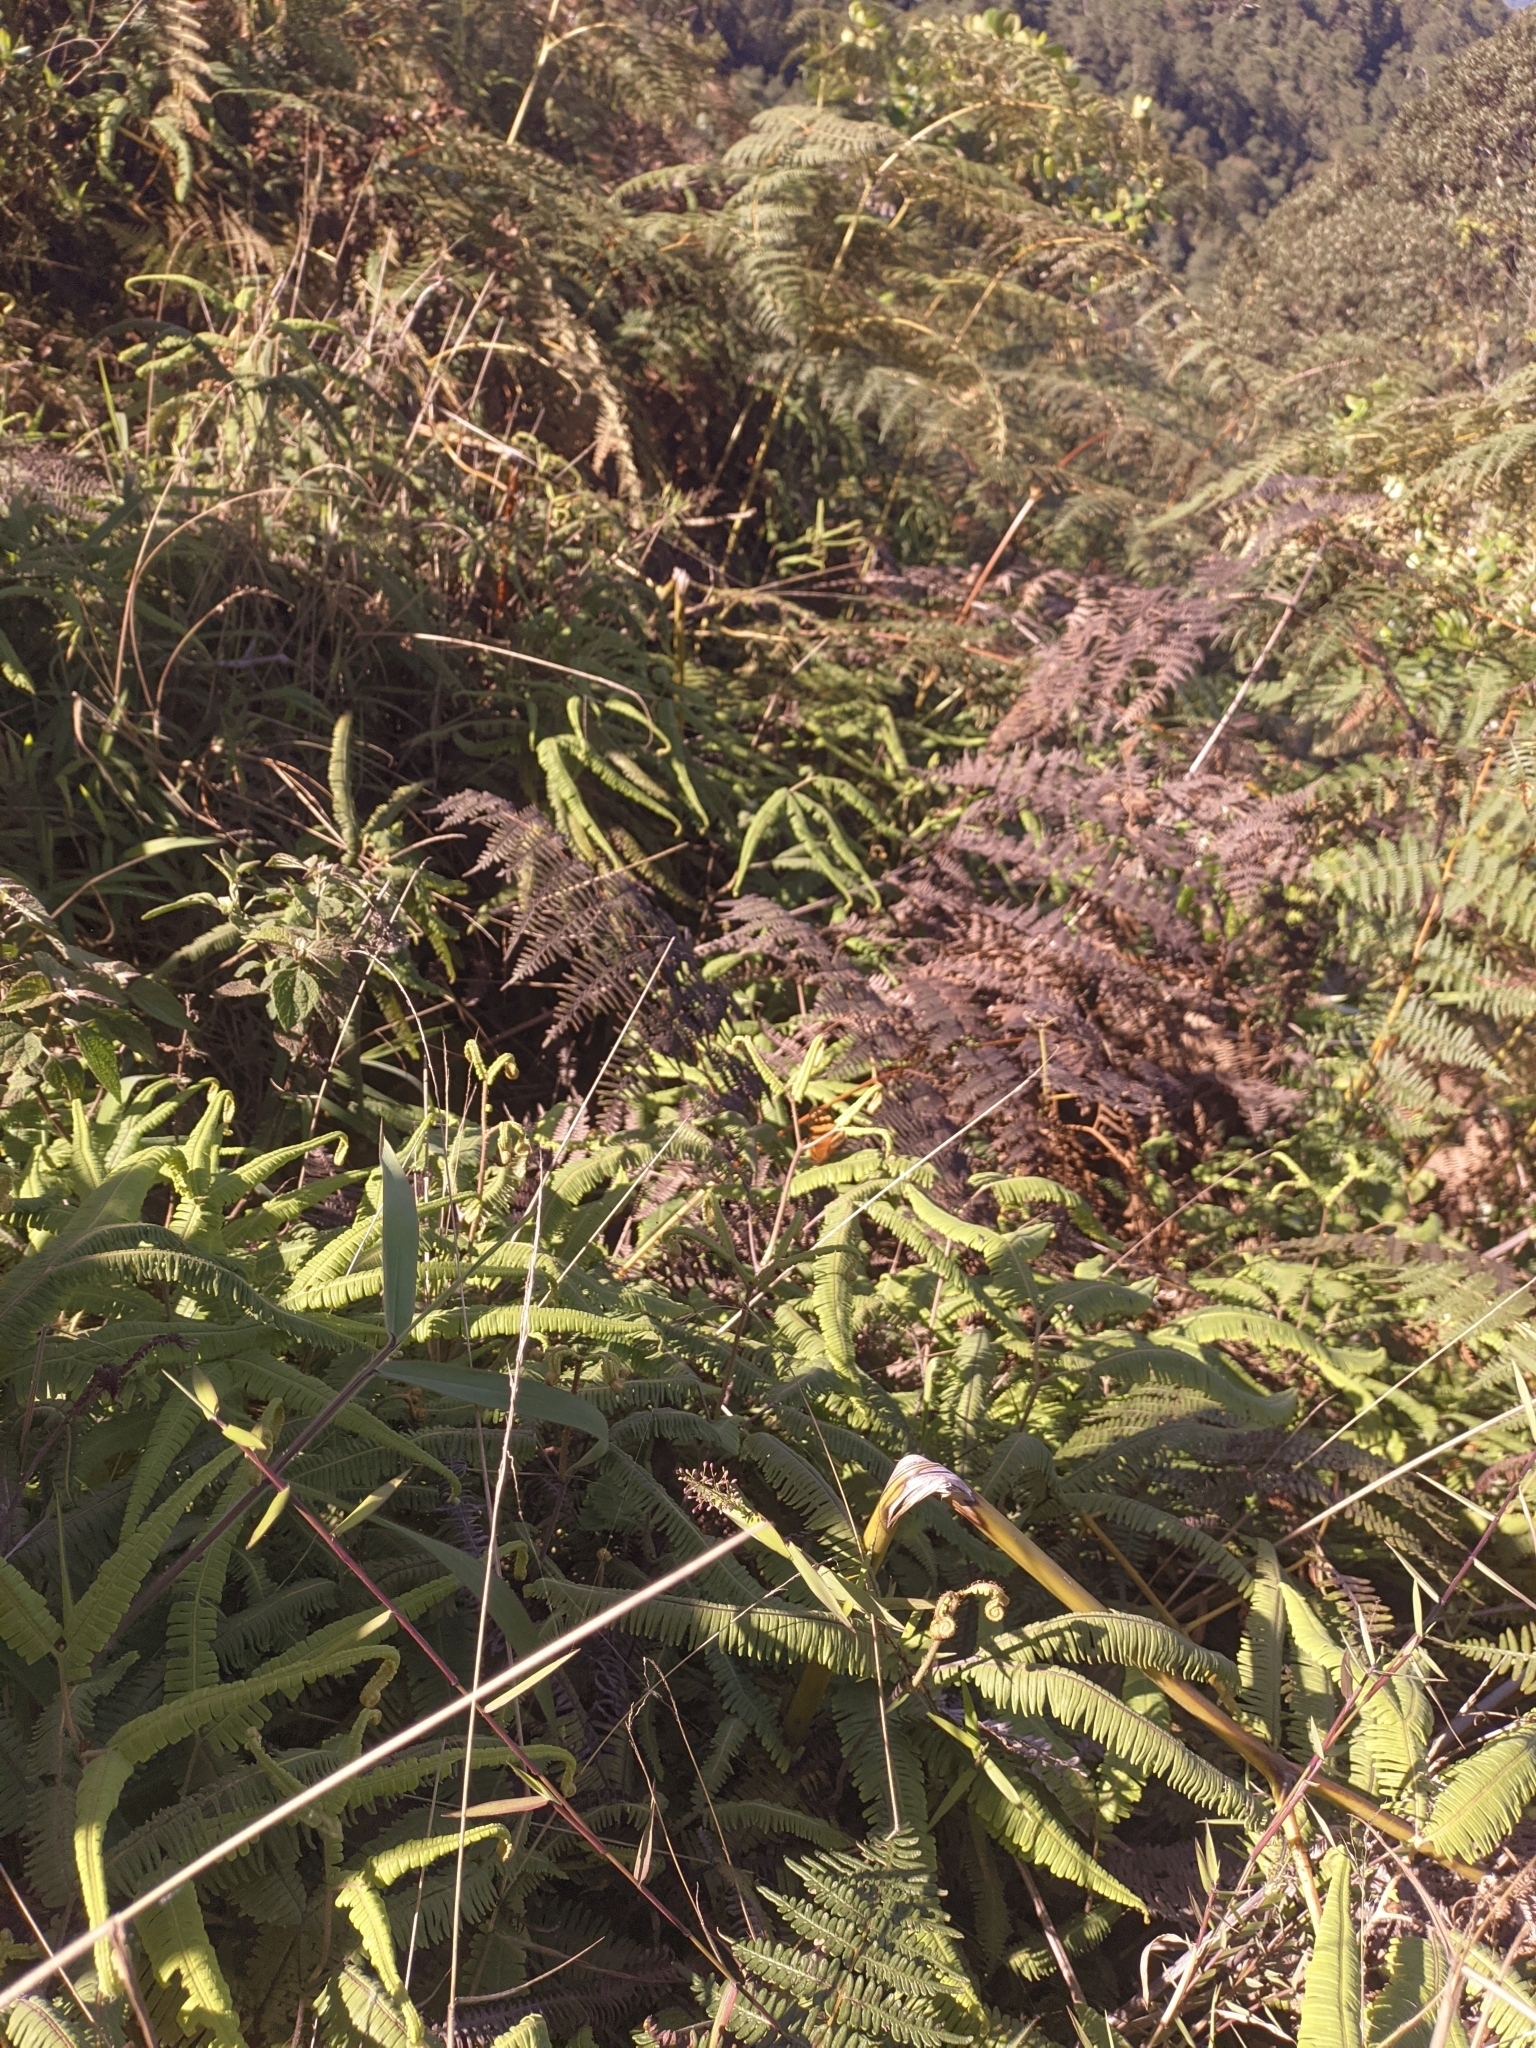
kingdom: Animalia
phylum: Arthropoda
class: Insecta
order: Lepidoptera
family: Nymphalidae
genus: Hypanartia
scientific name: Hypanartia lethe
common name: Orange mapwing
